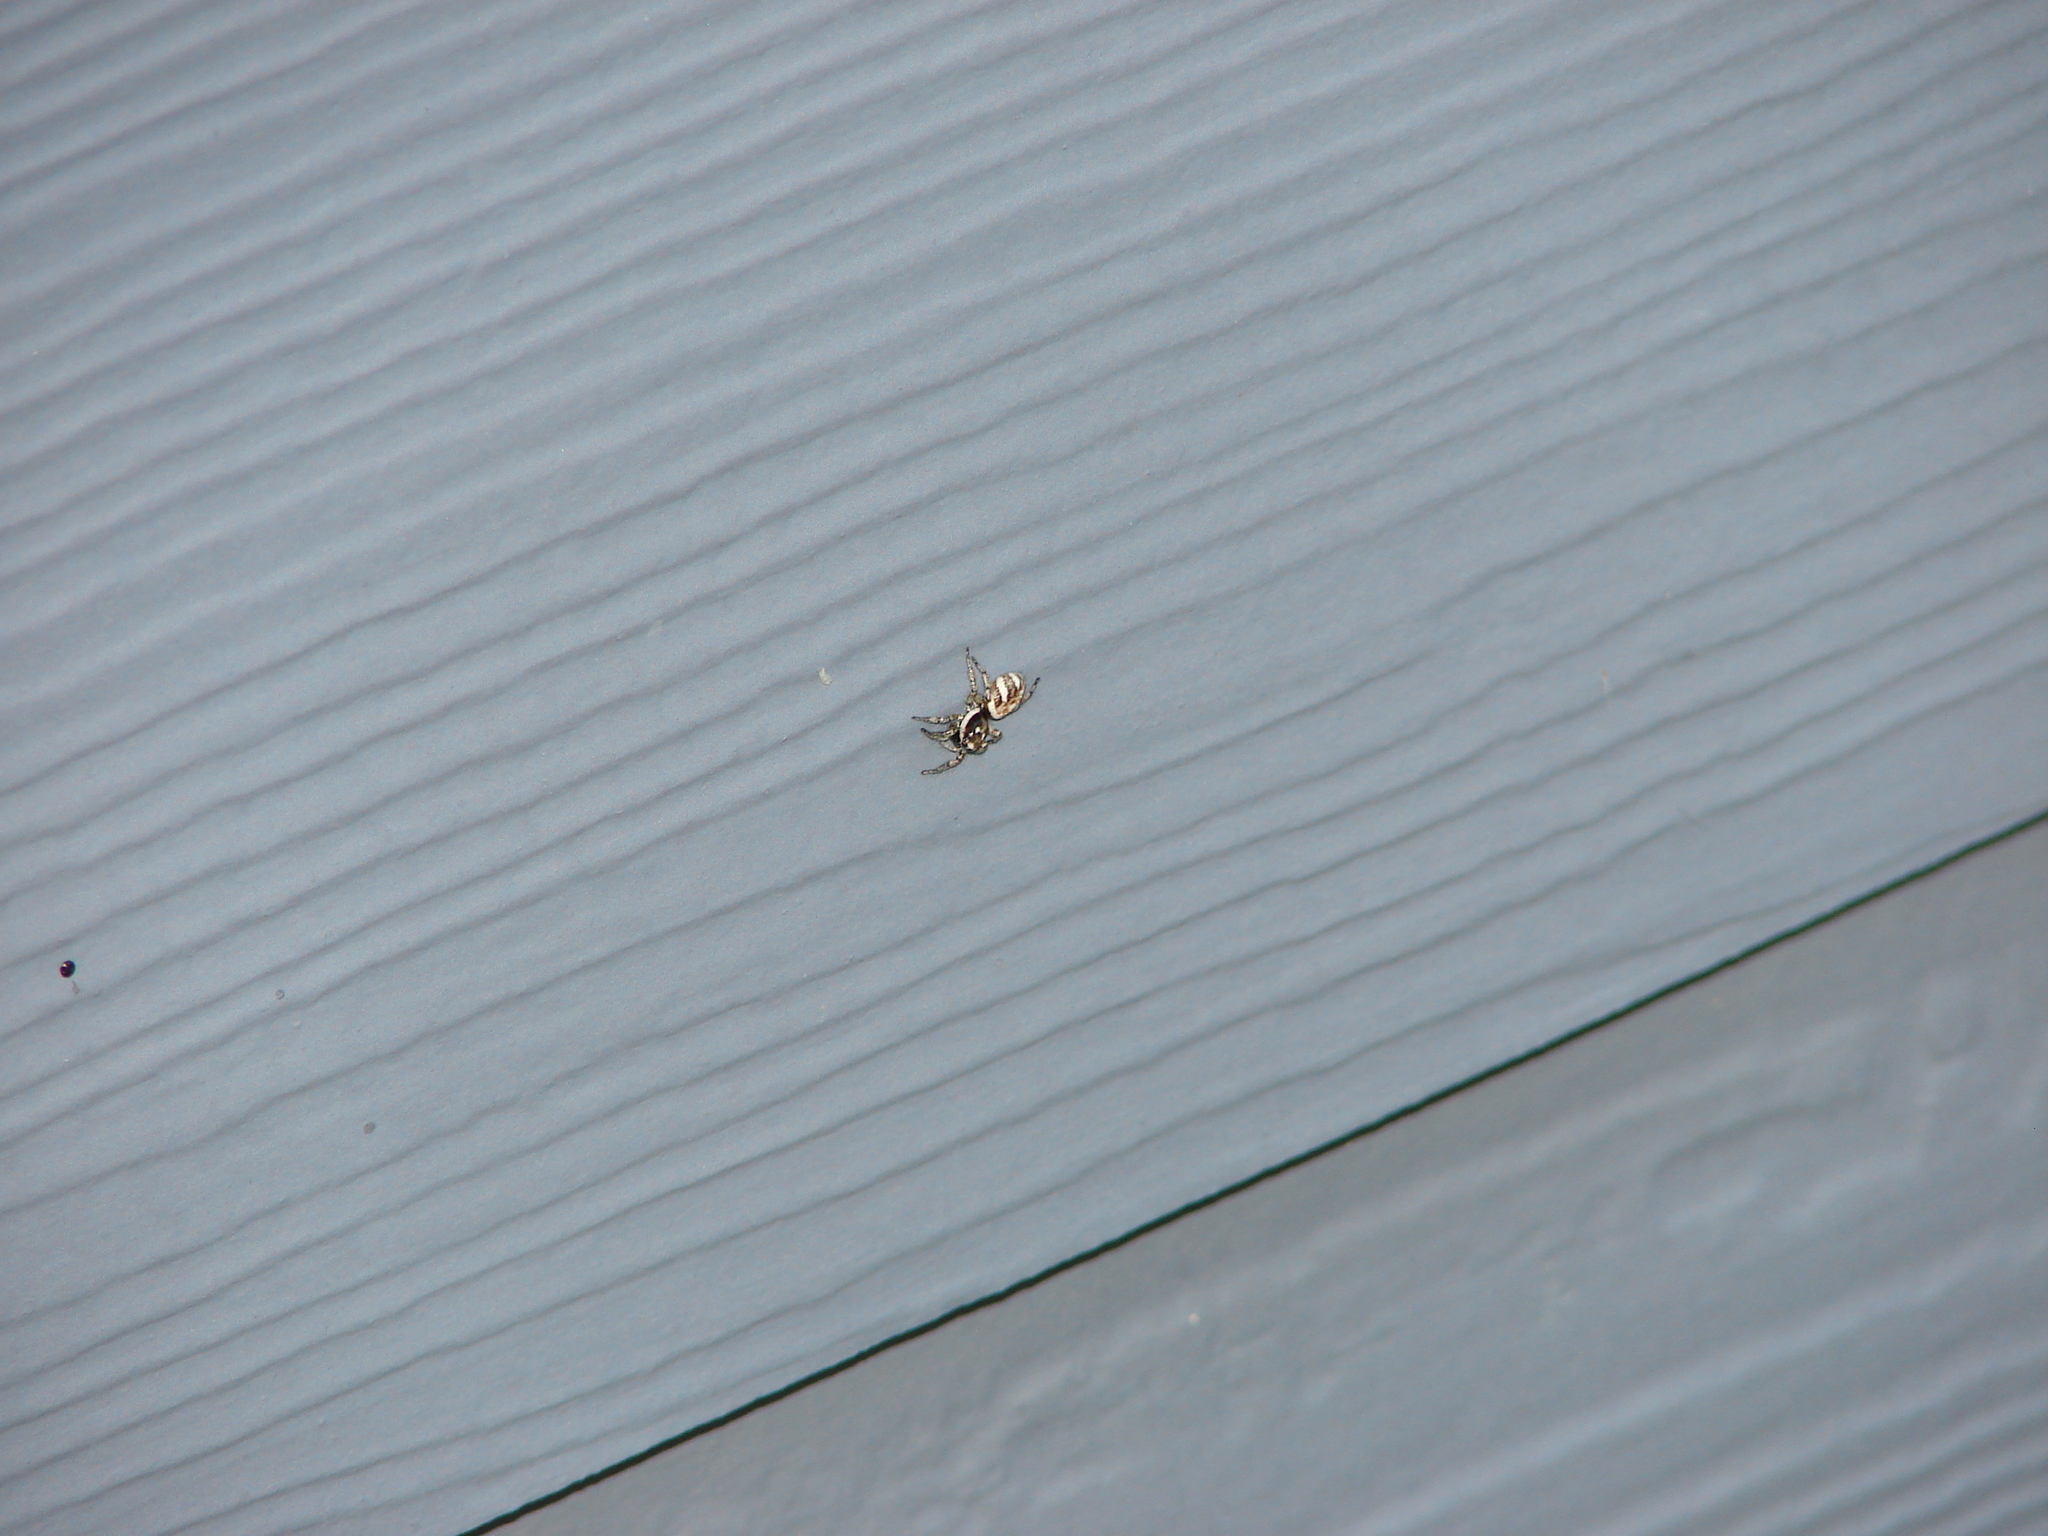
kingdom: Animalia
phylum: Arthropoda
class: Arachnida
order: Araneae
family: Salticidae
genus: Salticus
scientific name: Salticus scenicus
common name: Zebra jumper
